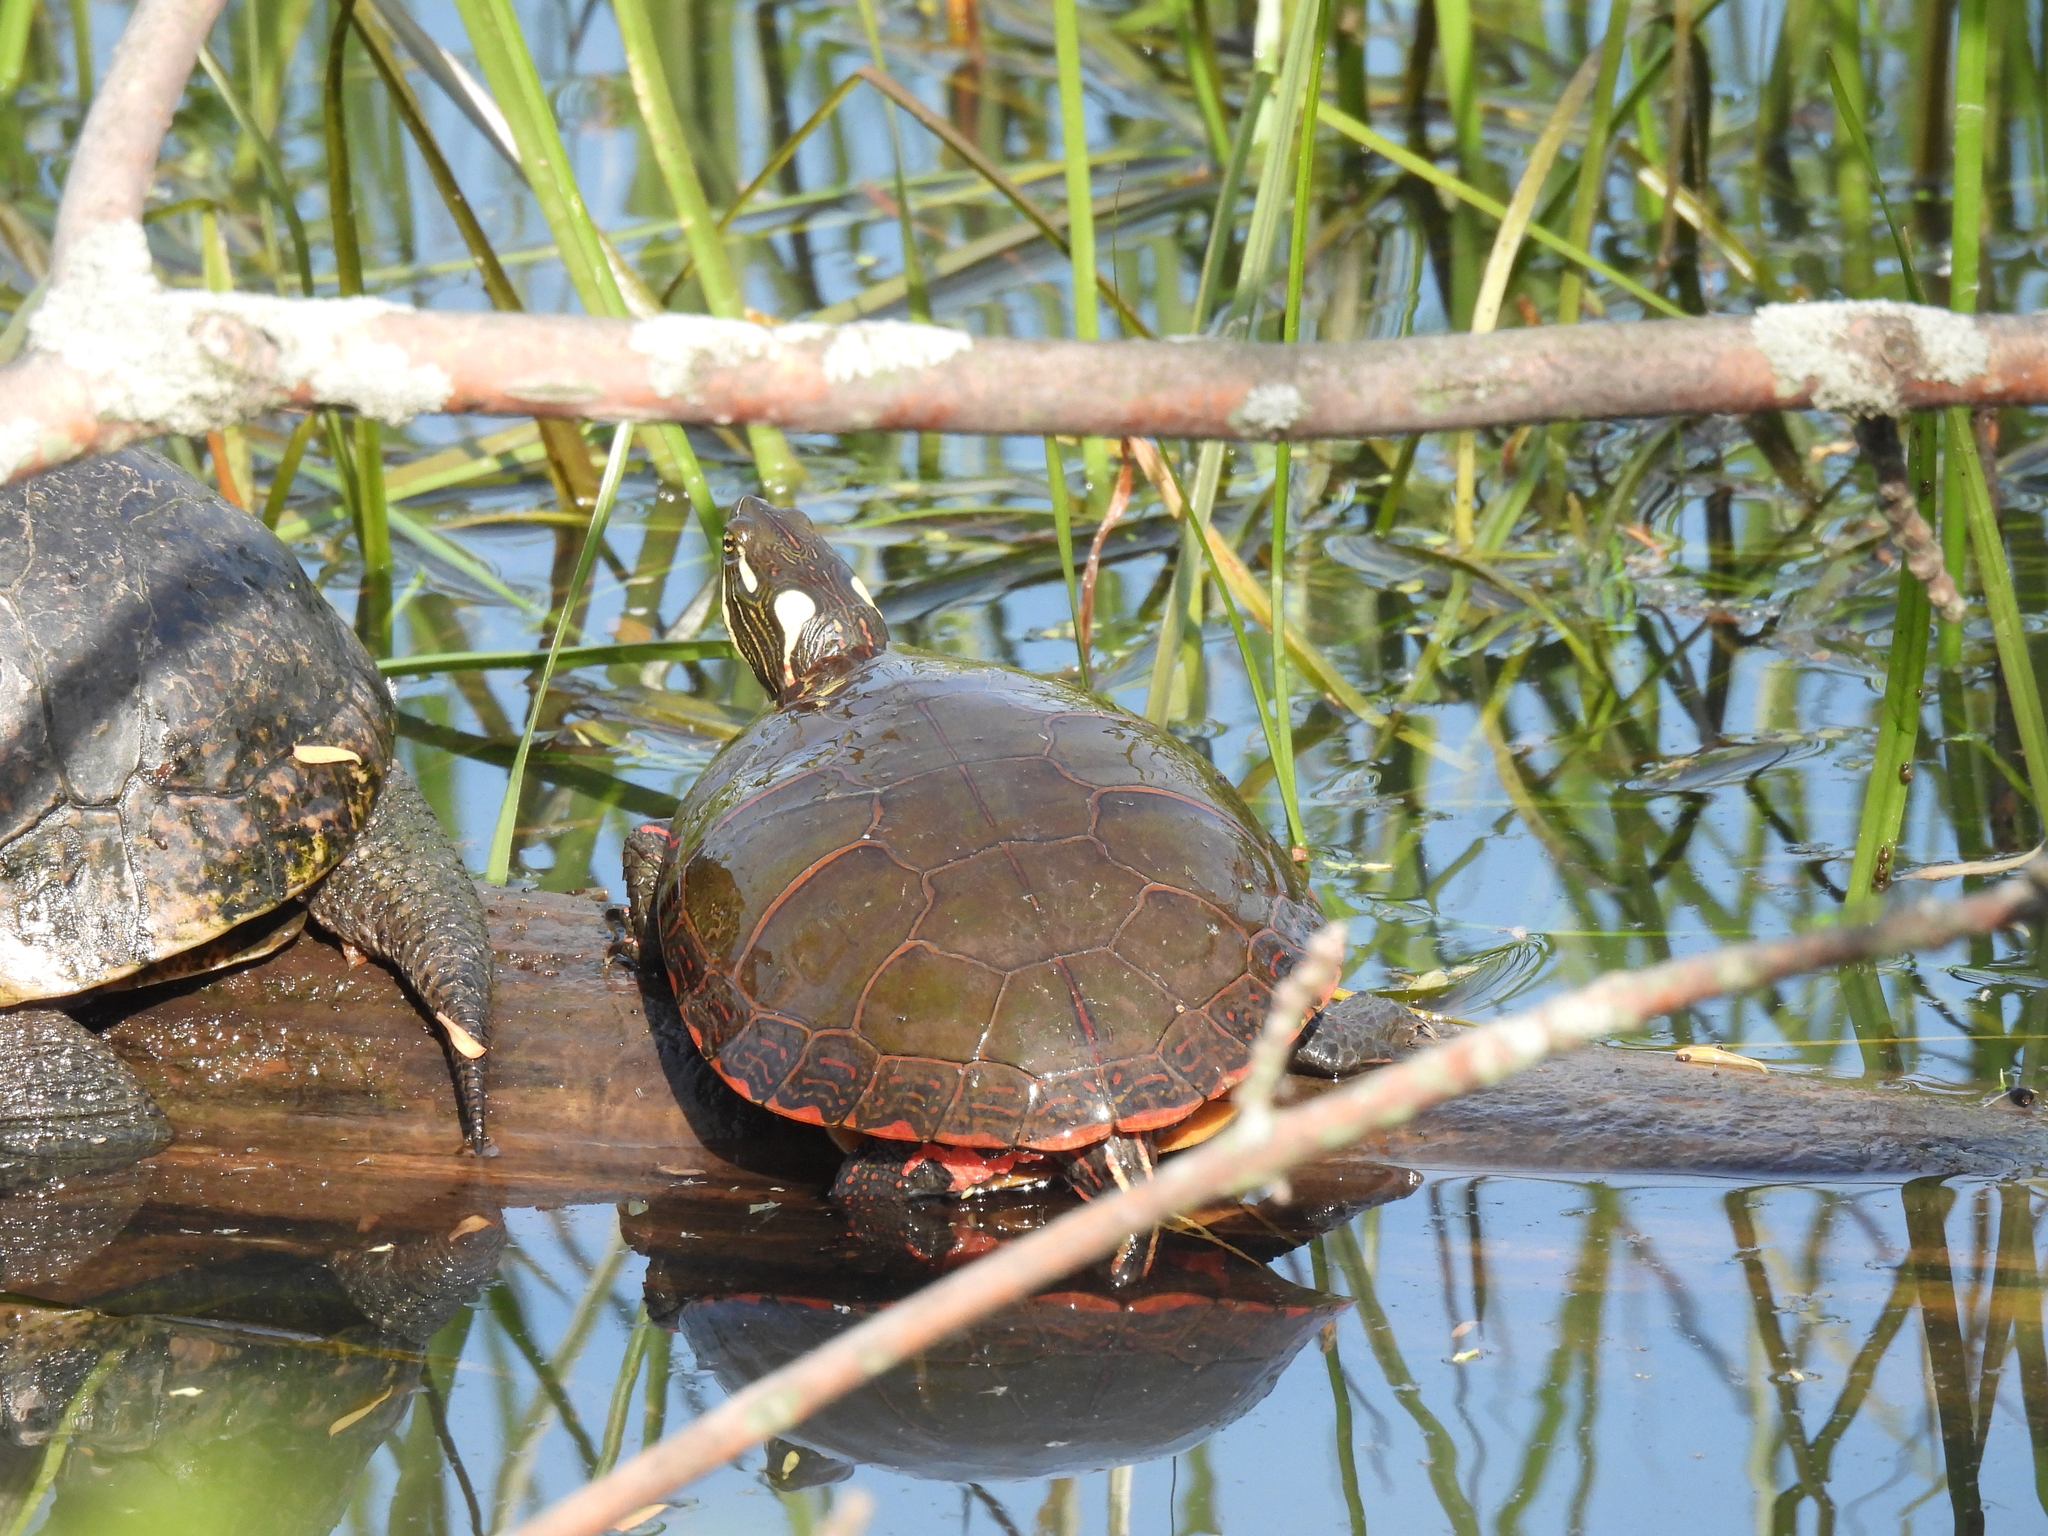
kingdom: Animalia
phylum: Chordata
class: Testudines
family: Emydidae
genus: Chrysemys
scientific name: Chrysemys picta
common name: Painted turtle
